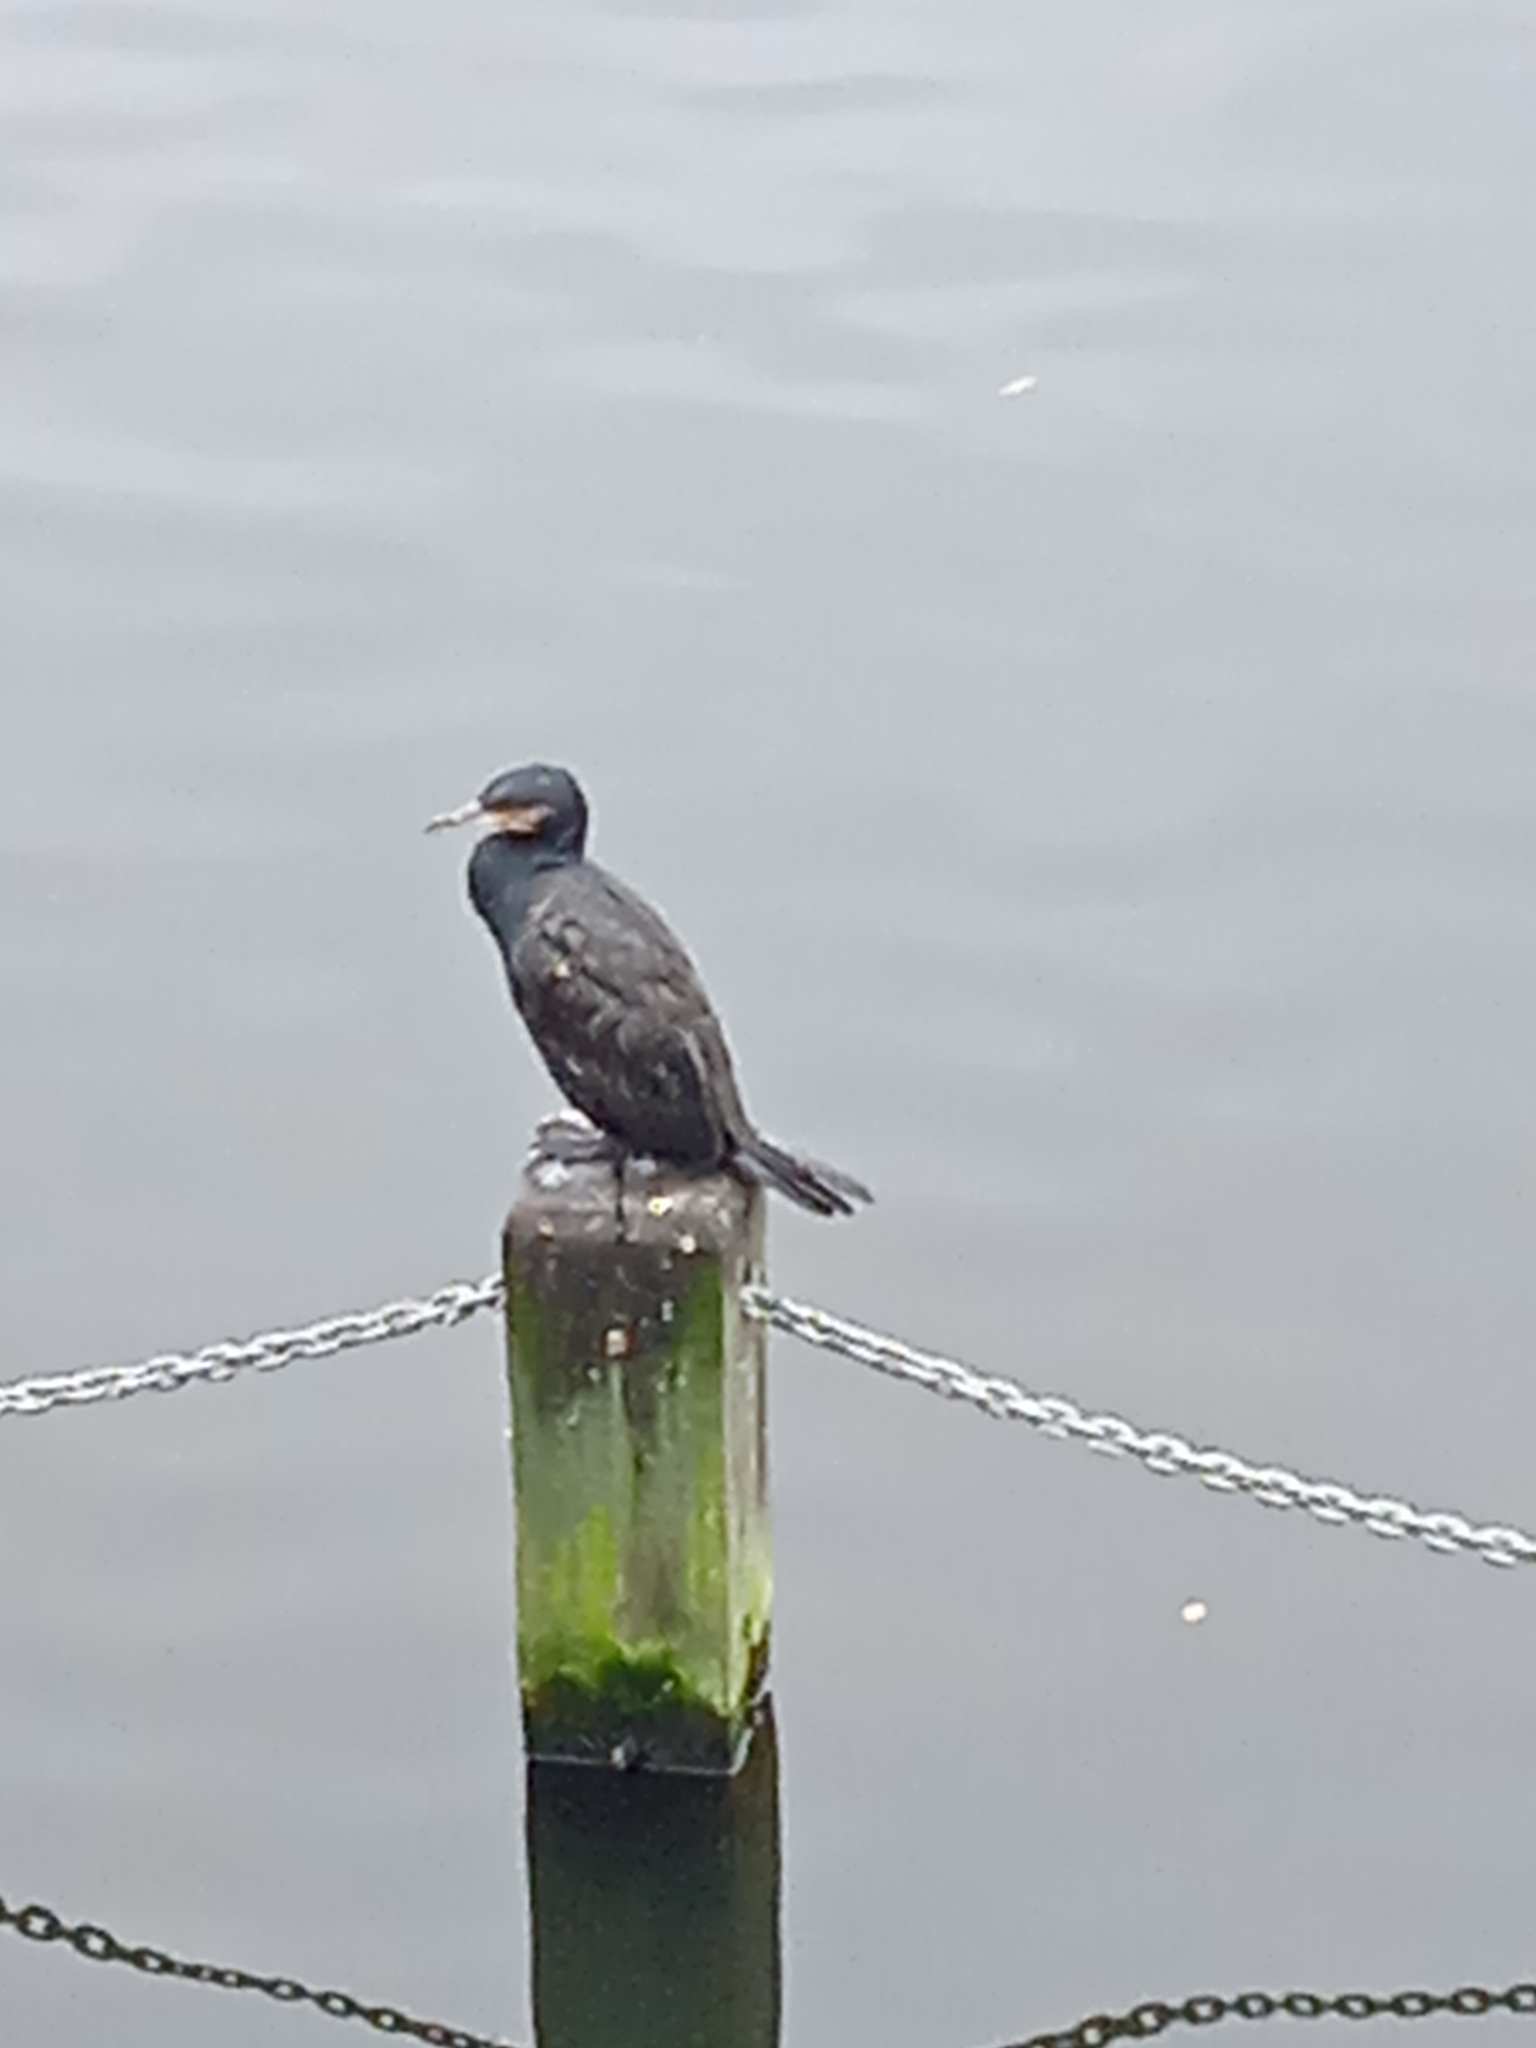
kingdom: Animalia
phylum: Chordata
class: Aves
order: Suliformes
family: Phalacrocoracidae
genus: Phalacrocorax
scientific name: Phalacrocorax carbo
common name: Great cormorant
